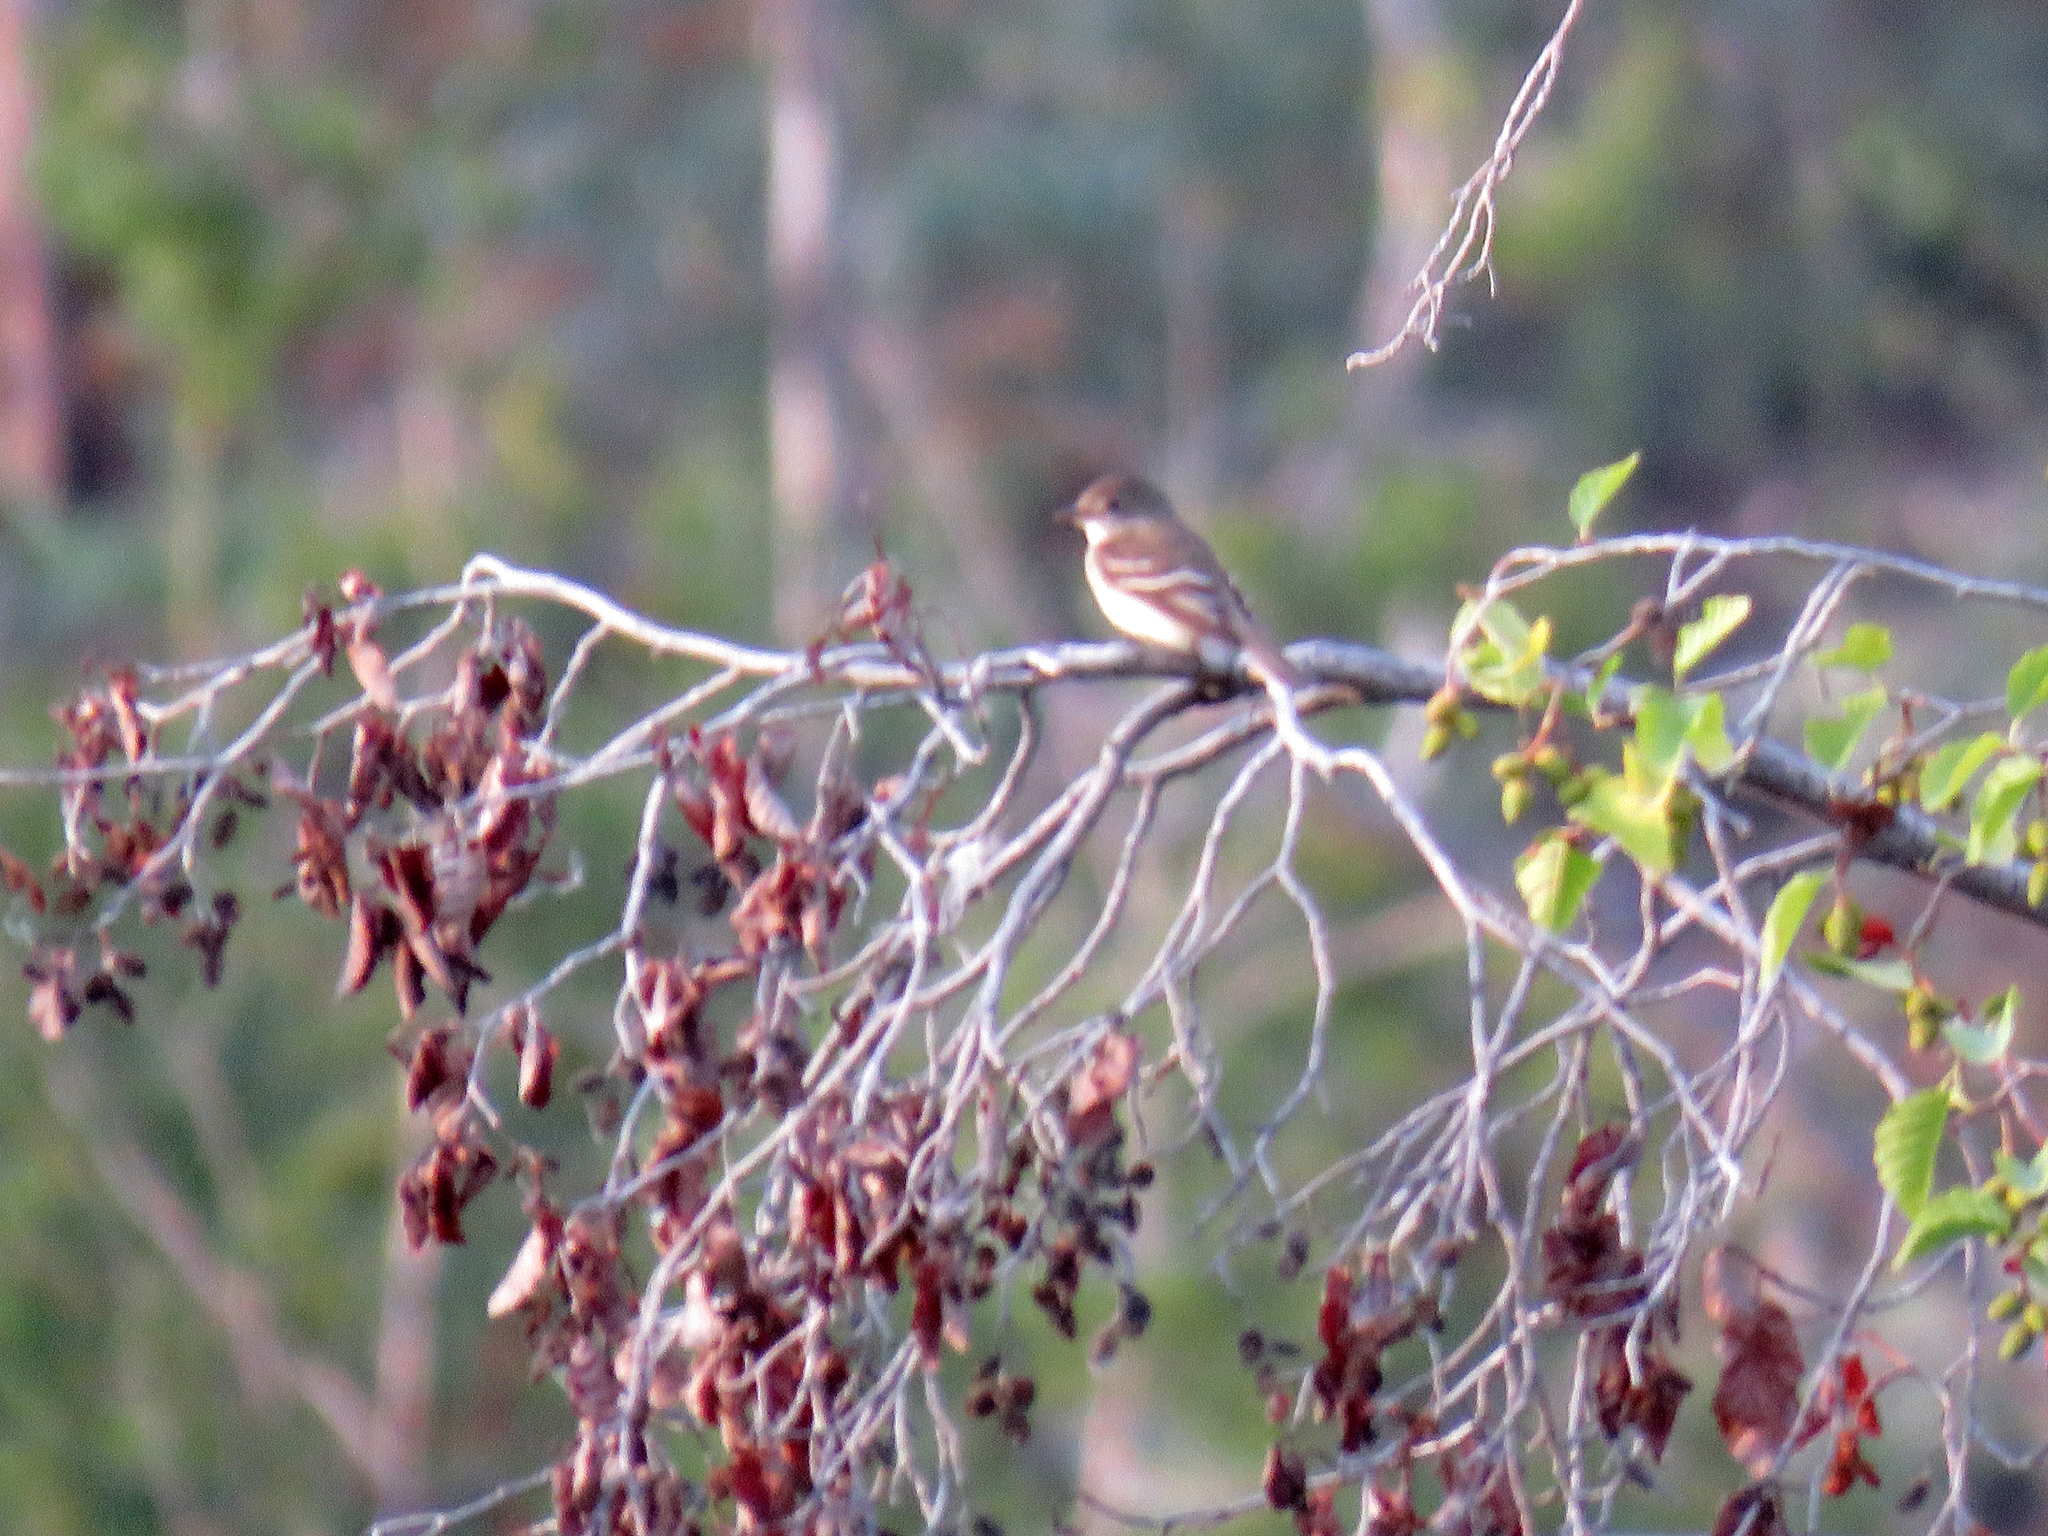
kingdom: Animalia
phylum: Chordata
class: Aves
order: Passeriformes
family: Tyrannidae
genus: Empidonax
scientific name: Empidonax alnorum
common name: Alder flycatcher
